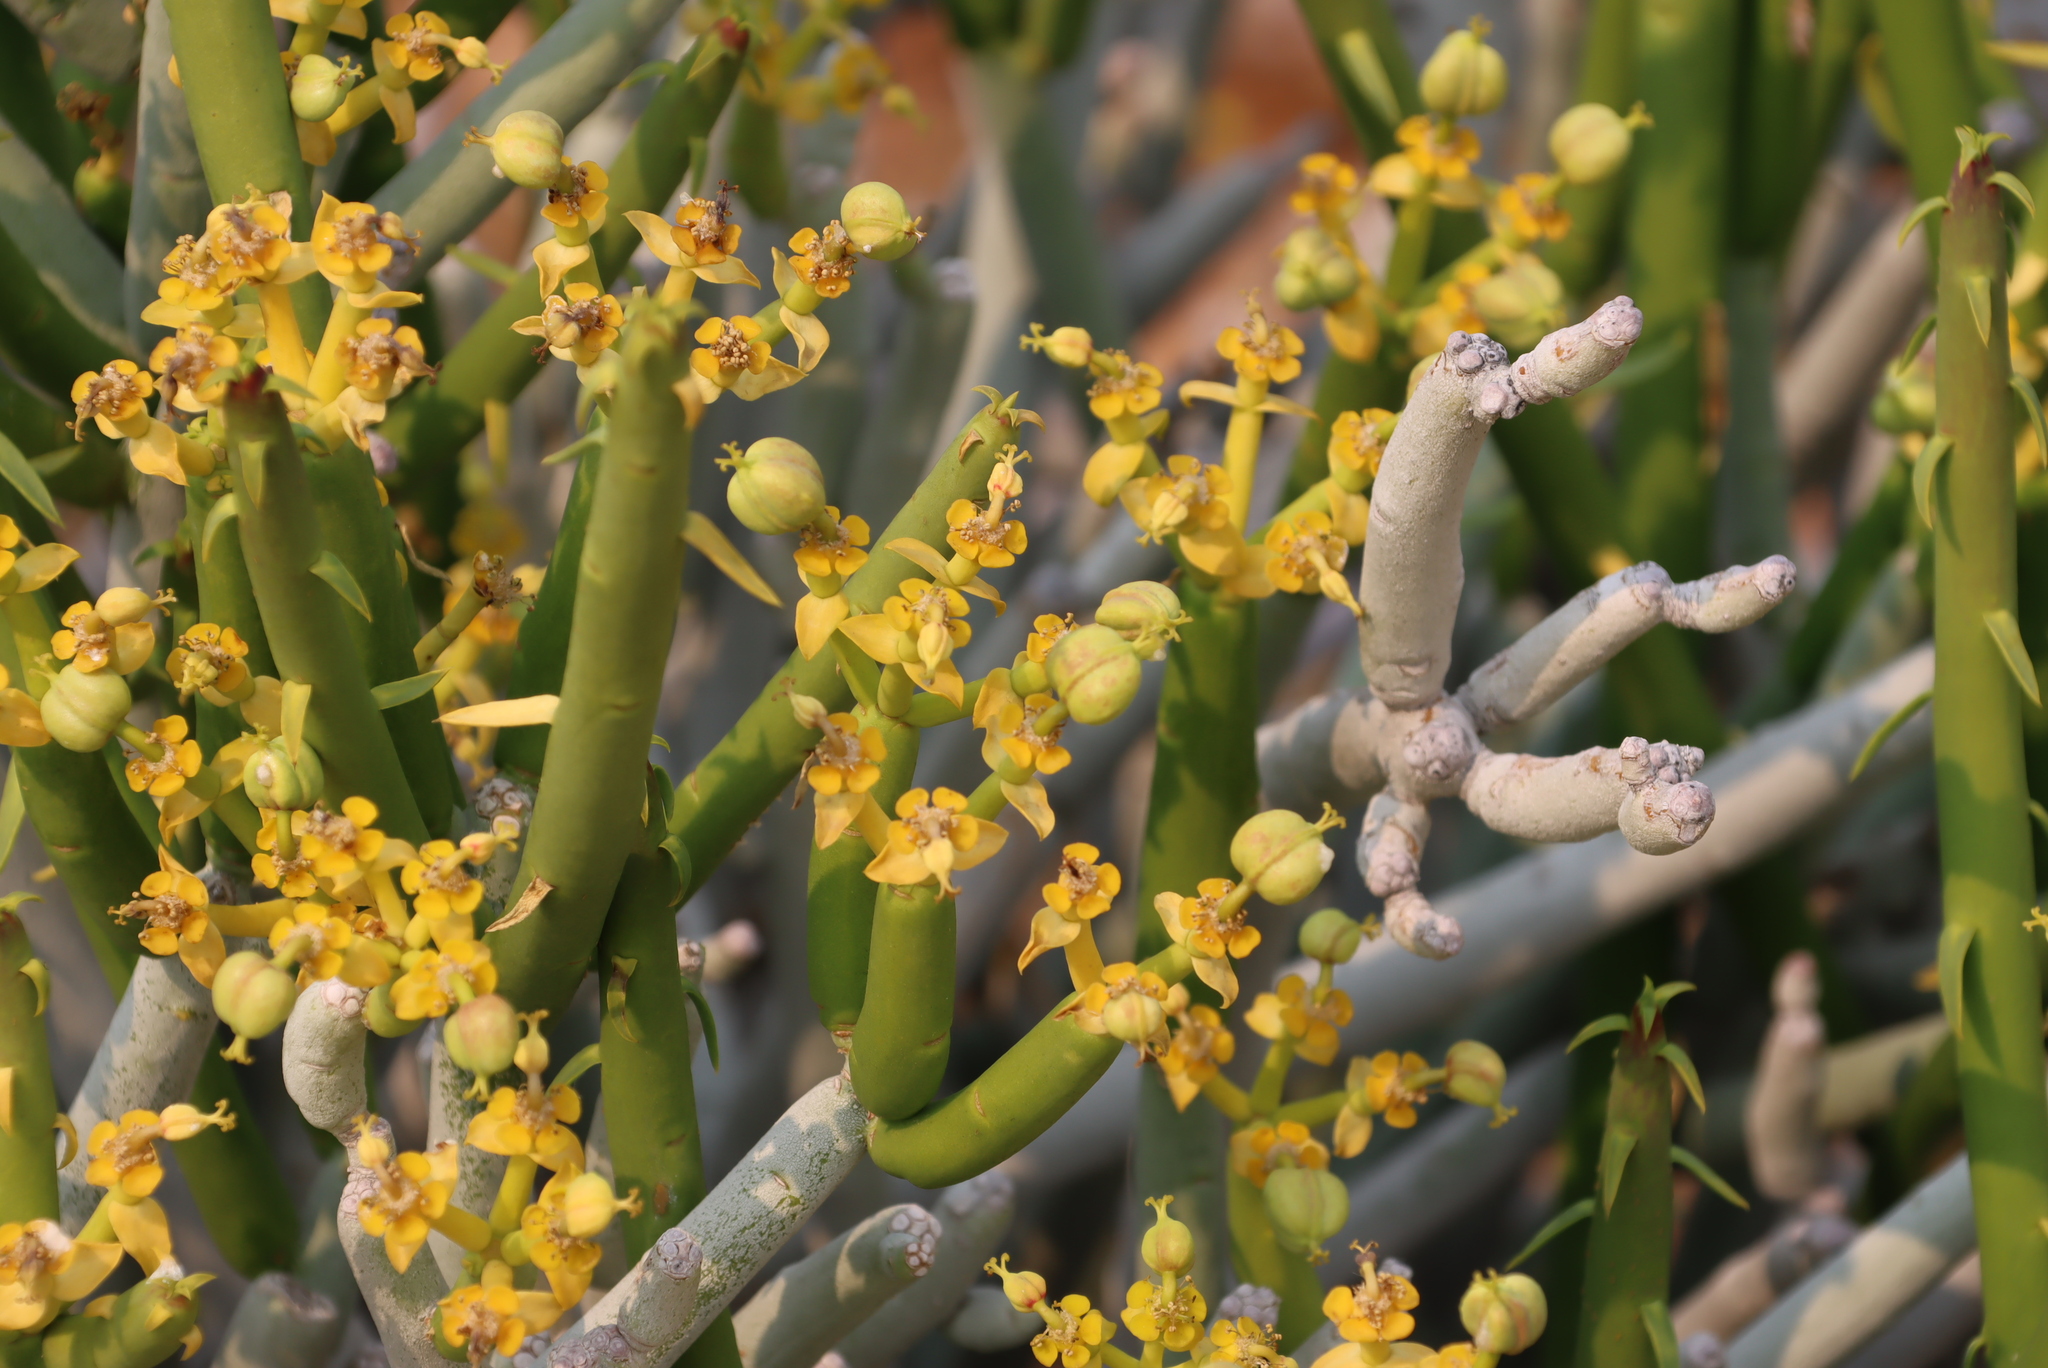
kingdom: Plantae
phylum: Tracheophyta
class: Magnoliopsida
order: Malpighiales
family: Euphorbiaceae
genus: Euphorbia
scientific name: Euphorbia mauritanica
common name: Jackal's-food
